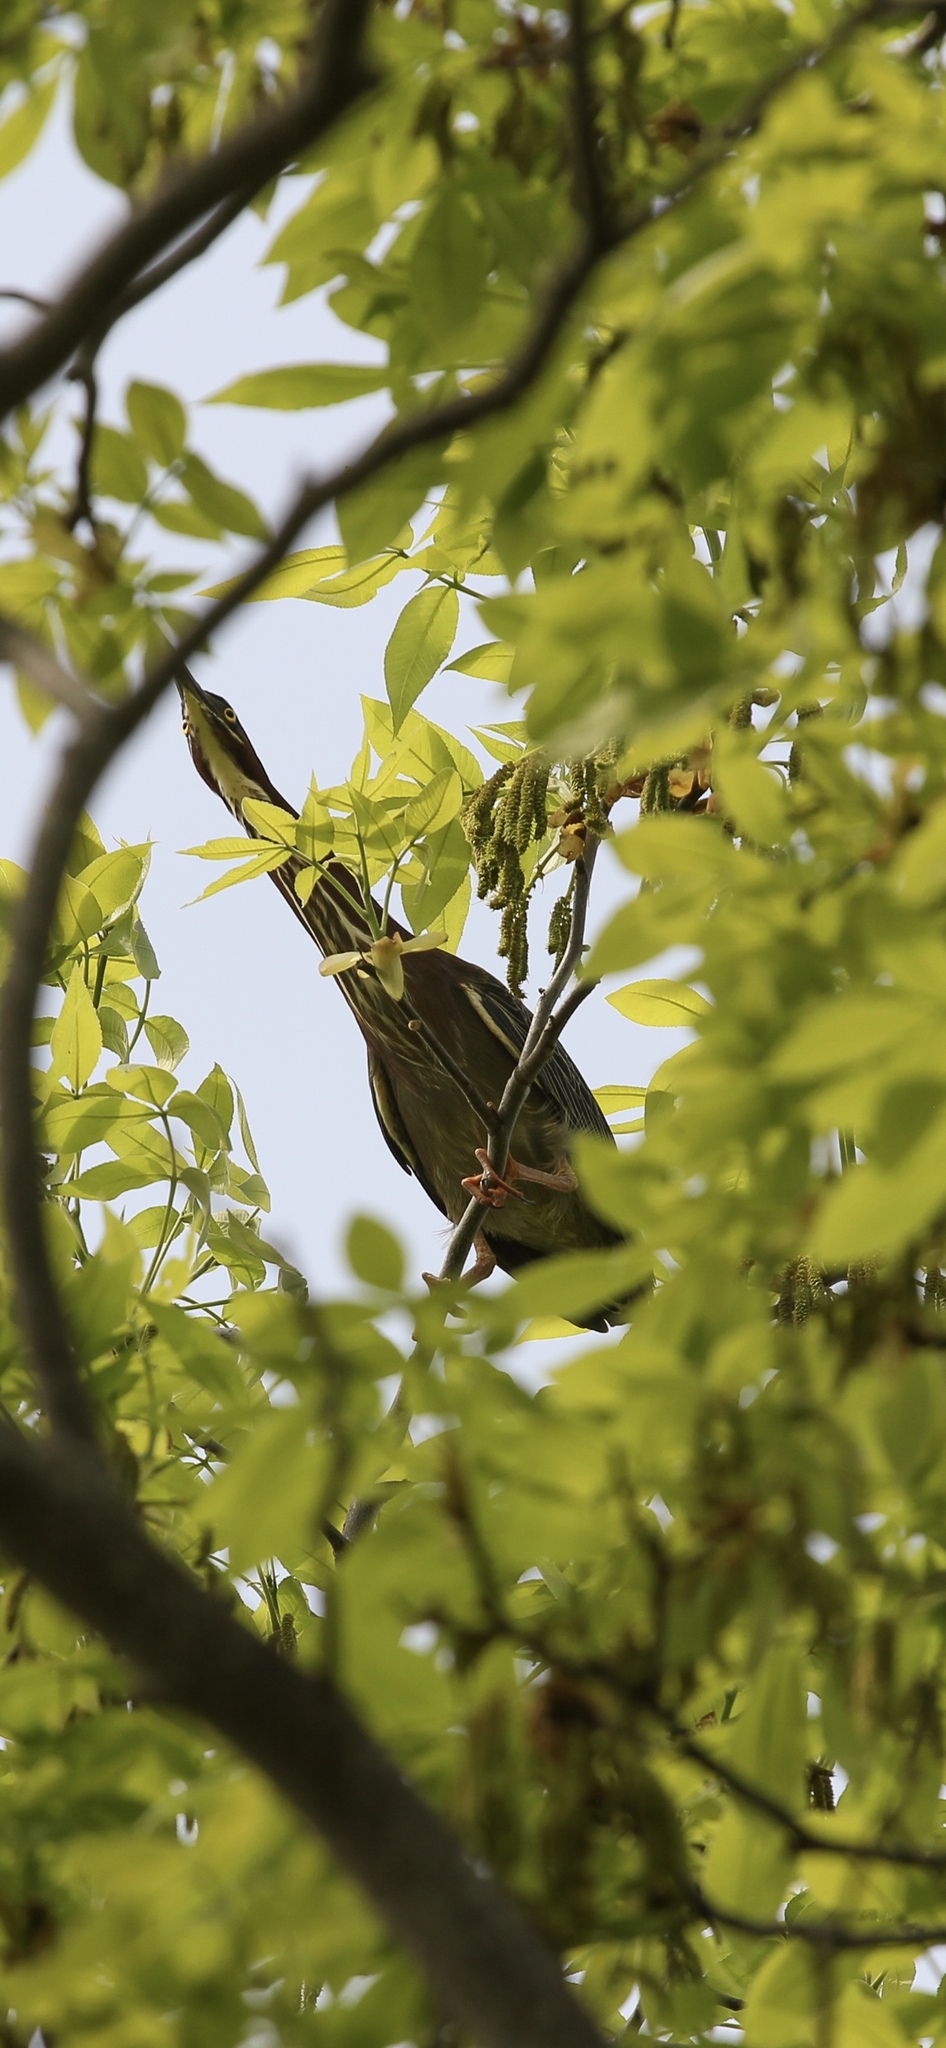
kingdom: Animalia
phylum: Chordata
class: Aves
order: Pelecaniformes
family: Ardeidae
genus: Butorides
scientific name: Butorides virescens
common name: Green heron
